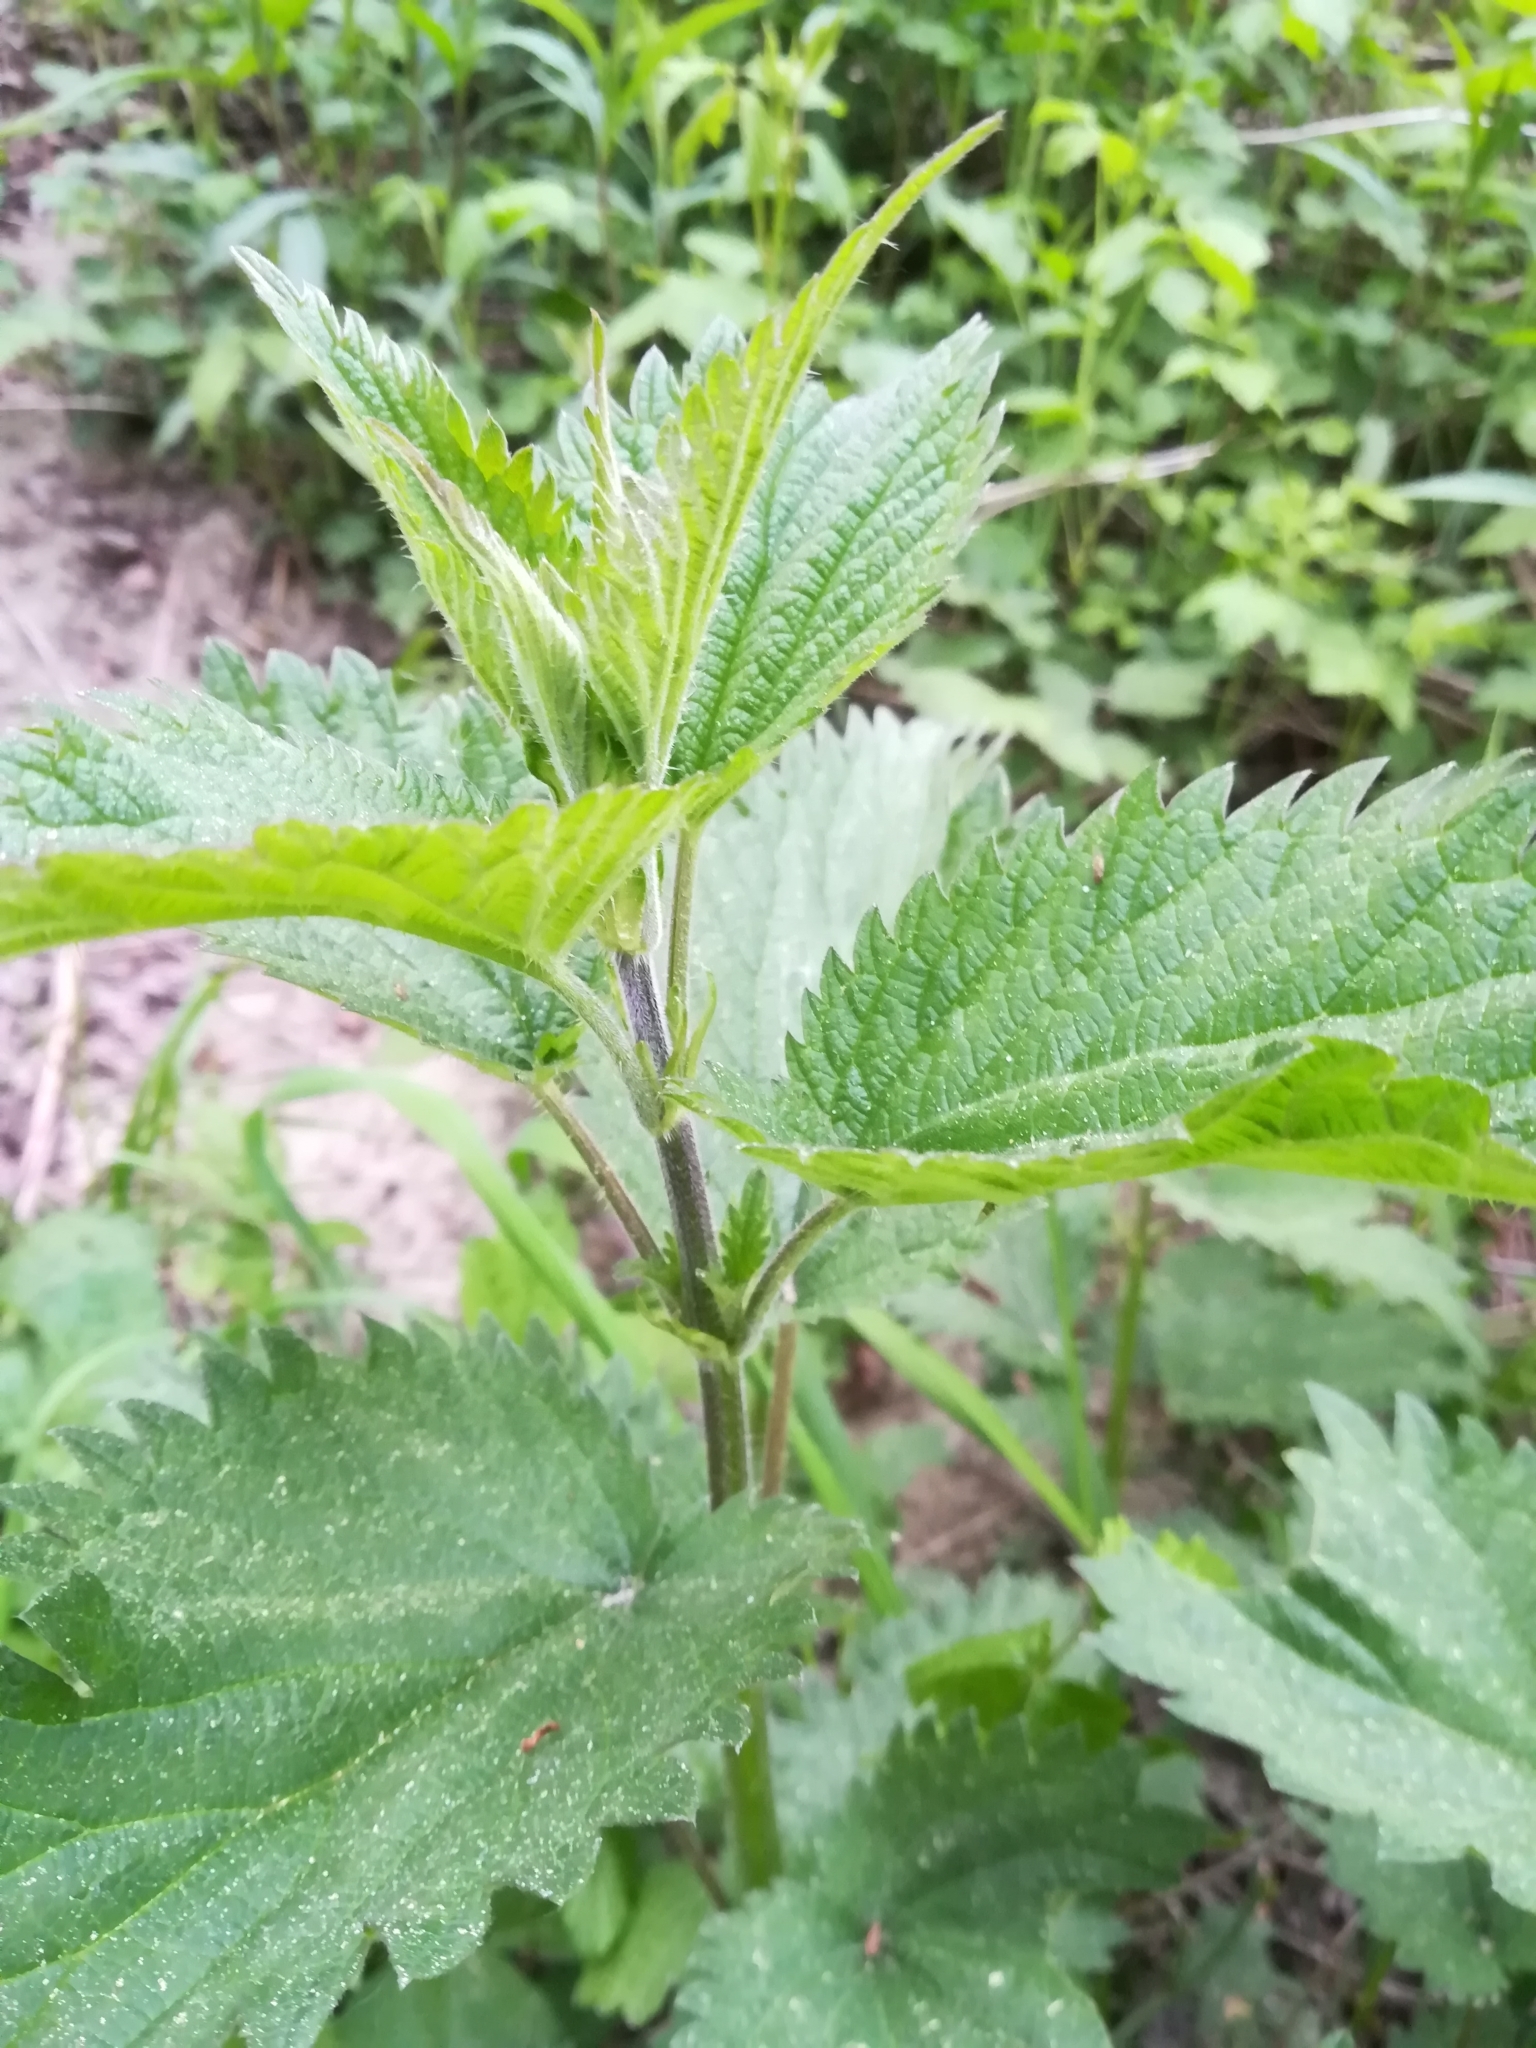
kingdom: Plantae
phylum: Tracheophyta
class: Magnoliopsida
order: Rosales
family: Urticaceae
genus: Urtica
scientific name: Urtica dioica
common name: Common nettle
